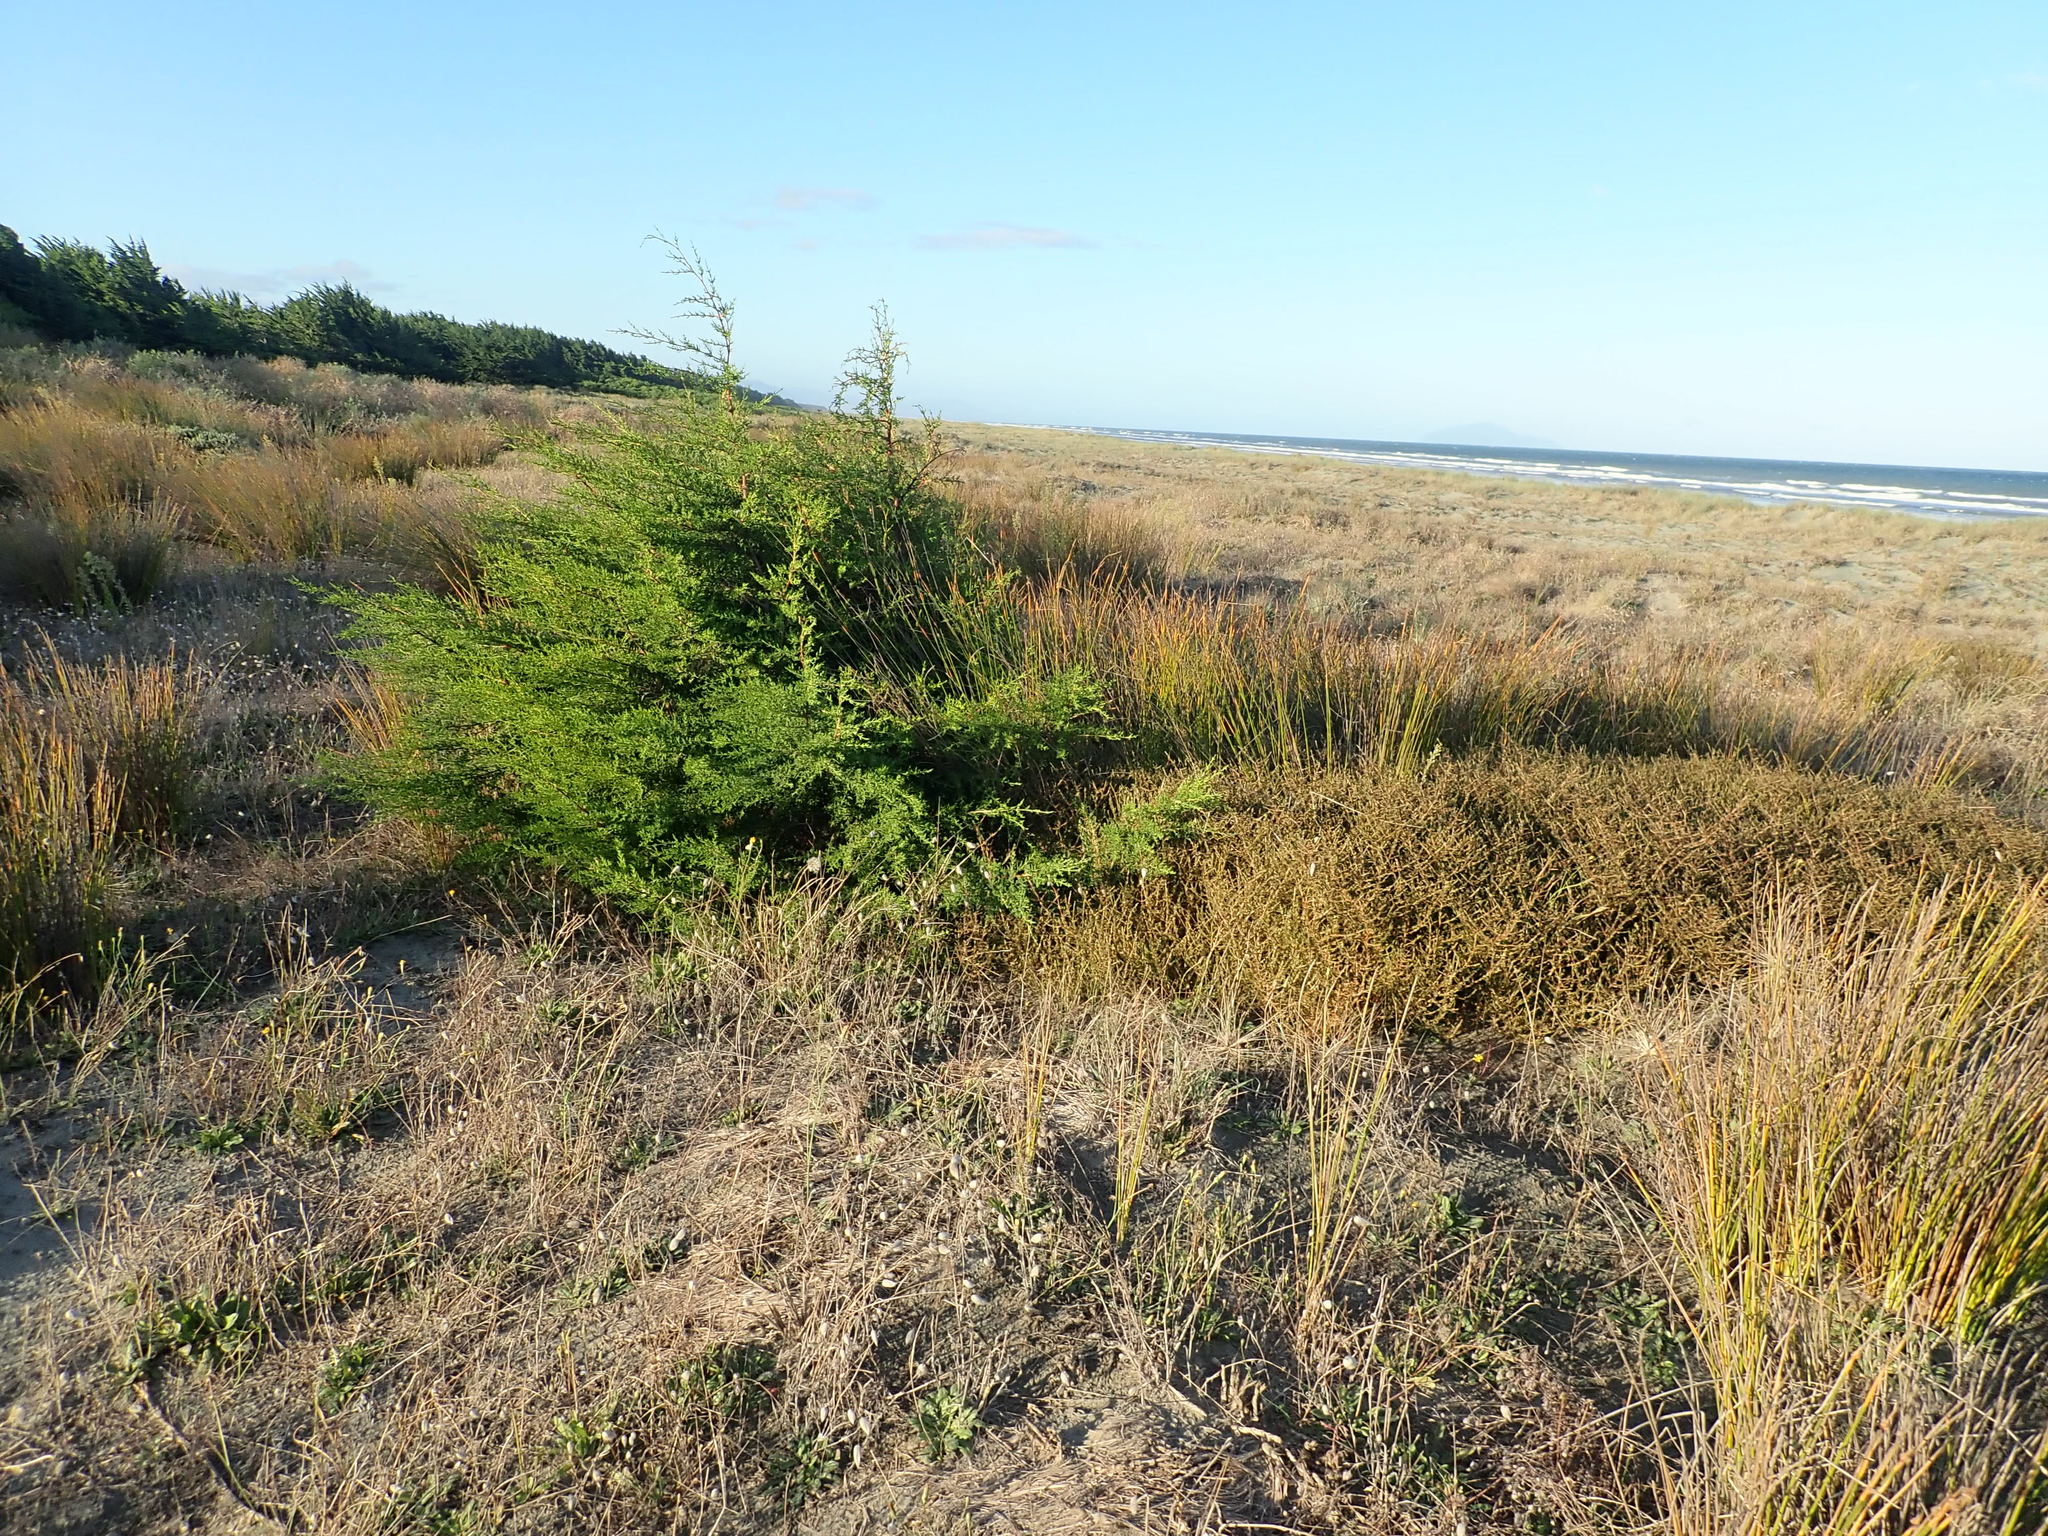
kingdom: Plantae
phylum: Tracheophyta
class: Pinopsida
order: Pinales
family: Cupressaceae
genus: Cupressus
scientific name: Cupressus macrocarpa
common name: Monterey cypress
